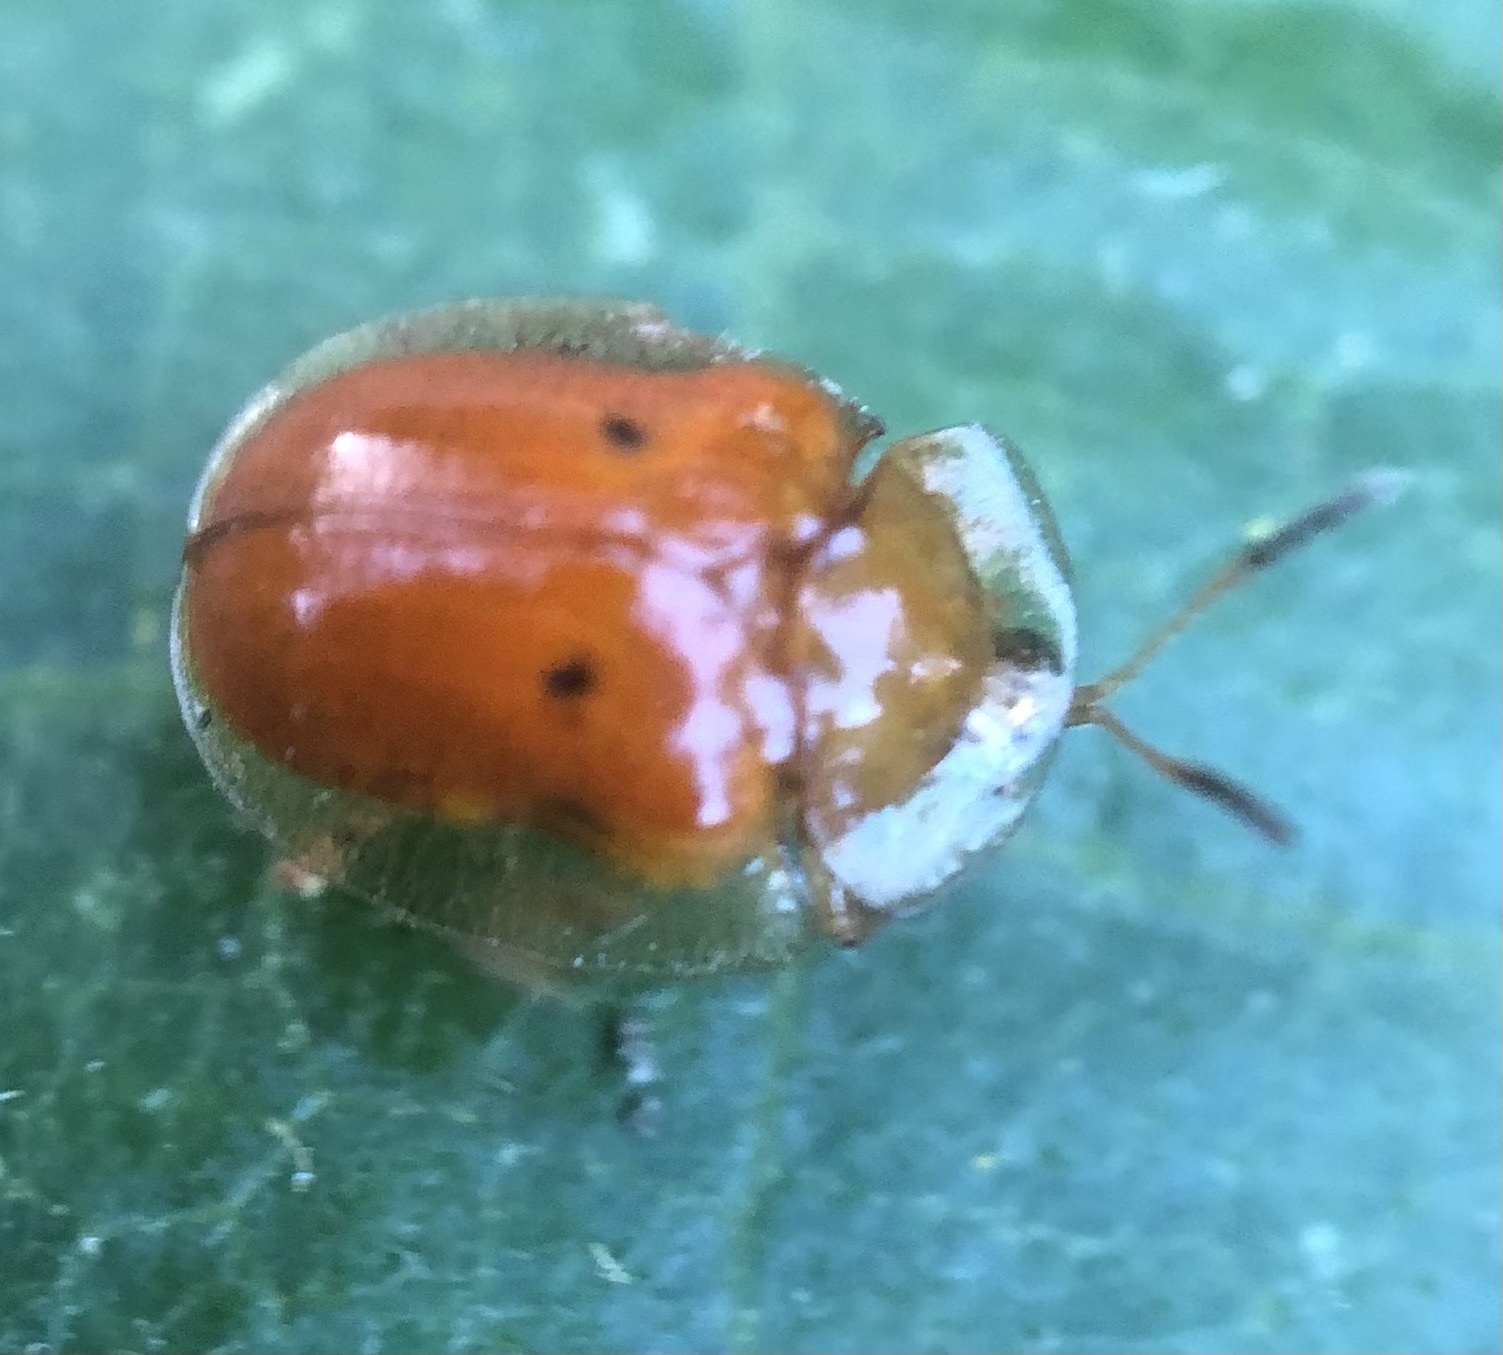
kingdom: Animalia
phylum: Arthropoda
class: Insecta
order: Coleoptera
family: Chrysomelidae
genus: Charidotella
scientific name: Charidotella sexpunctata
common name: Golden tortoise beetle
